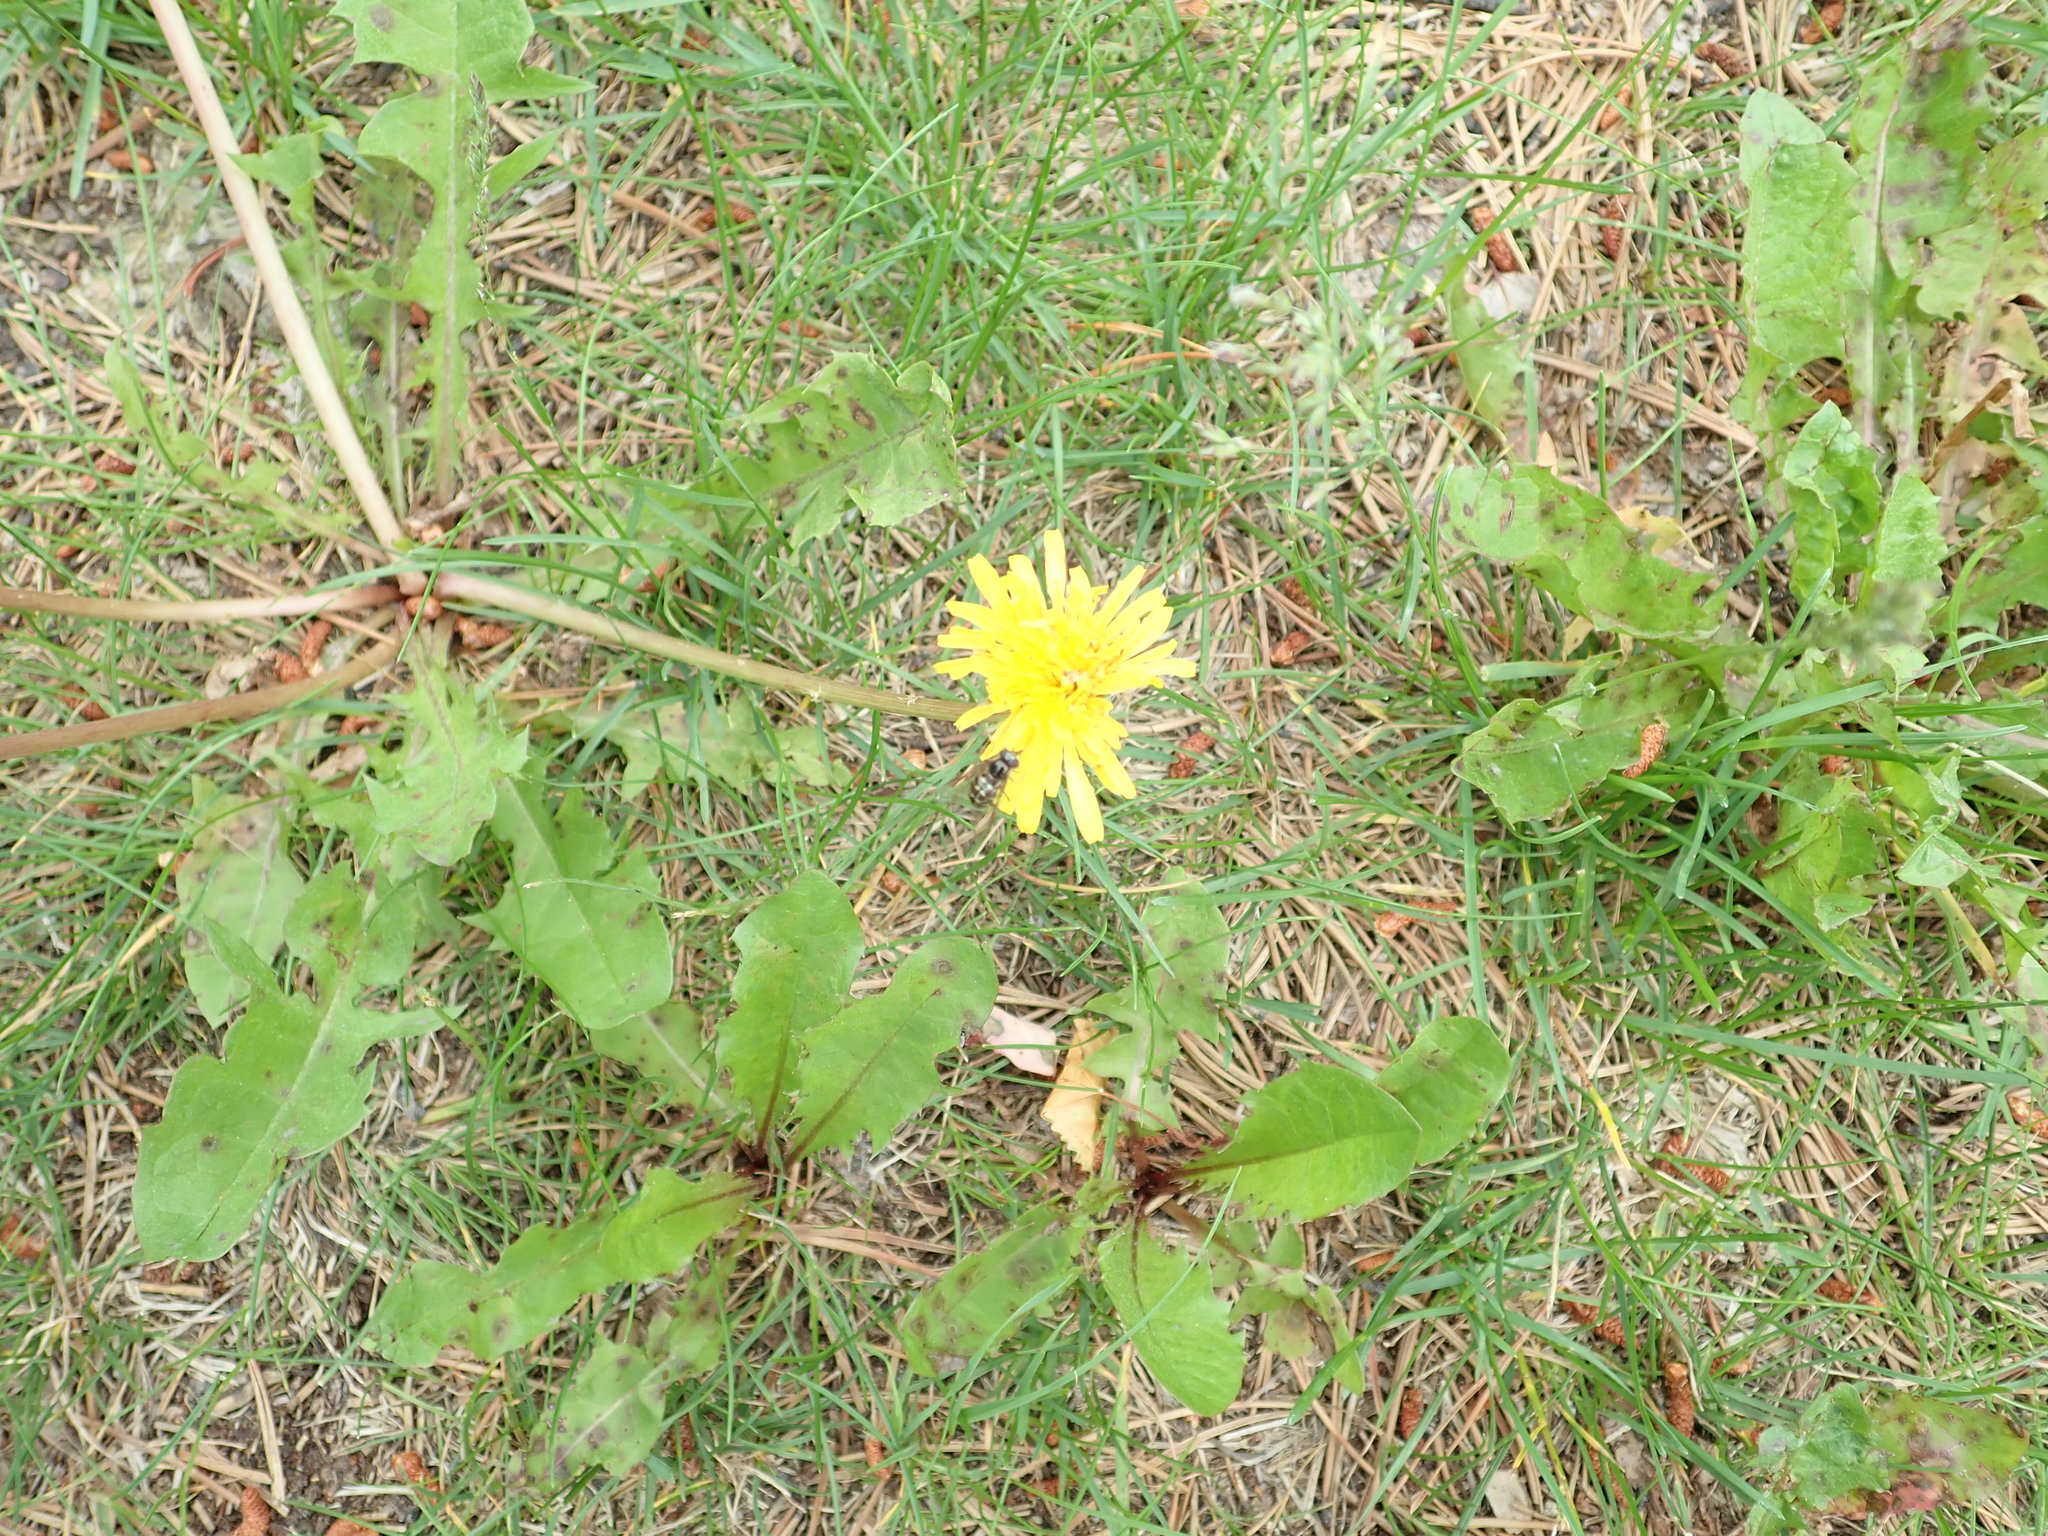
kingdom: Plantae
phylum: Tracheophyta
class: Magnoliopsida
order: Asterales
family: Asteraceae
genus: Taraxacum
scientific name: Taraxacum officinale
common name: Common dandelion
